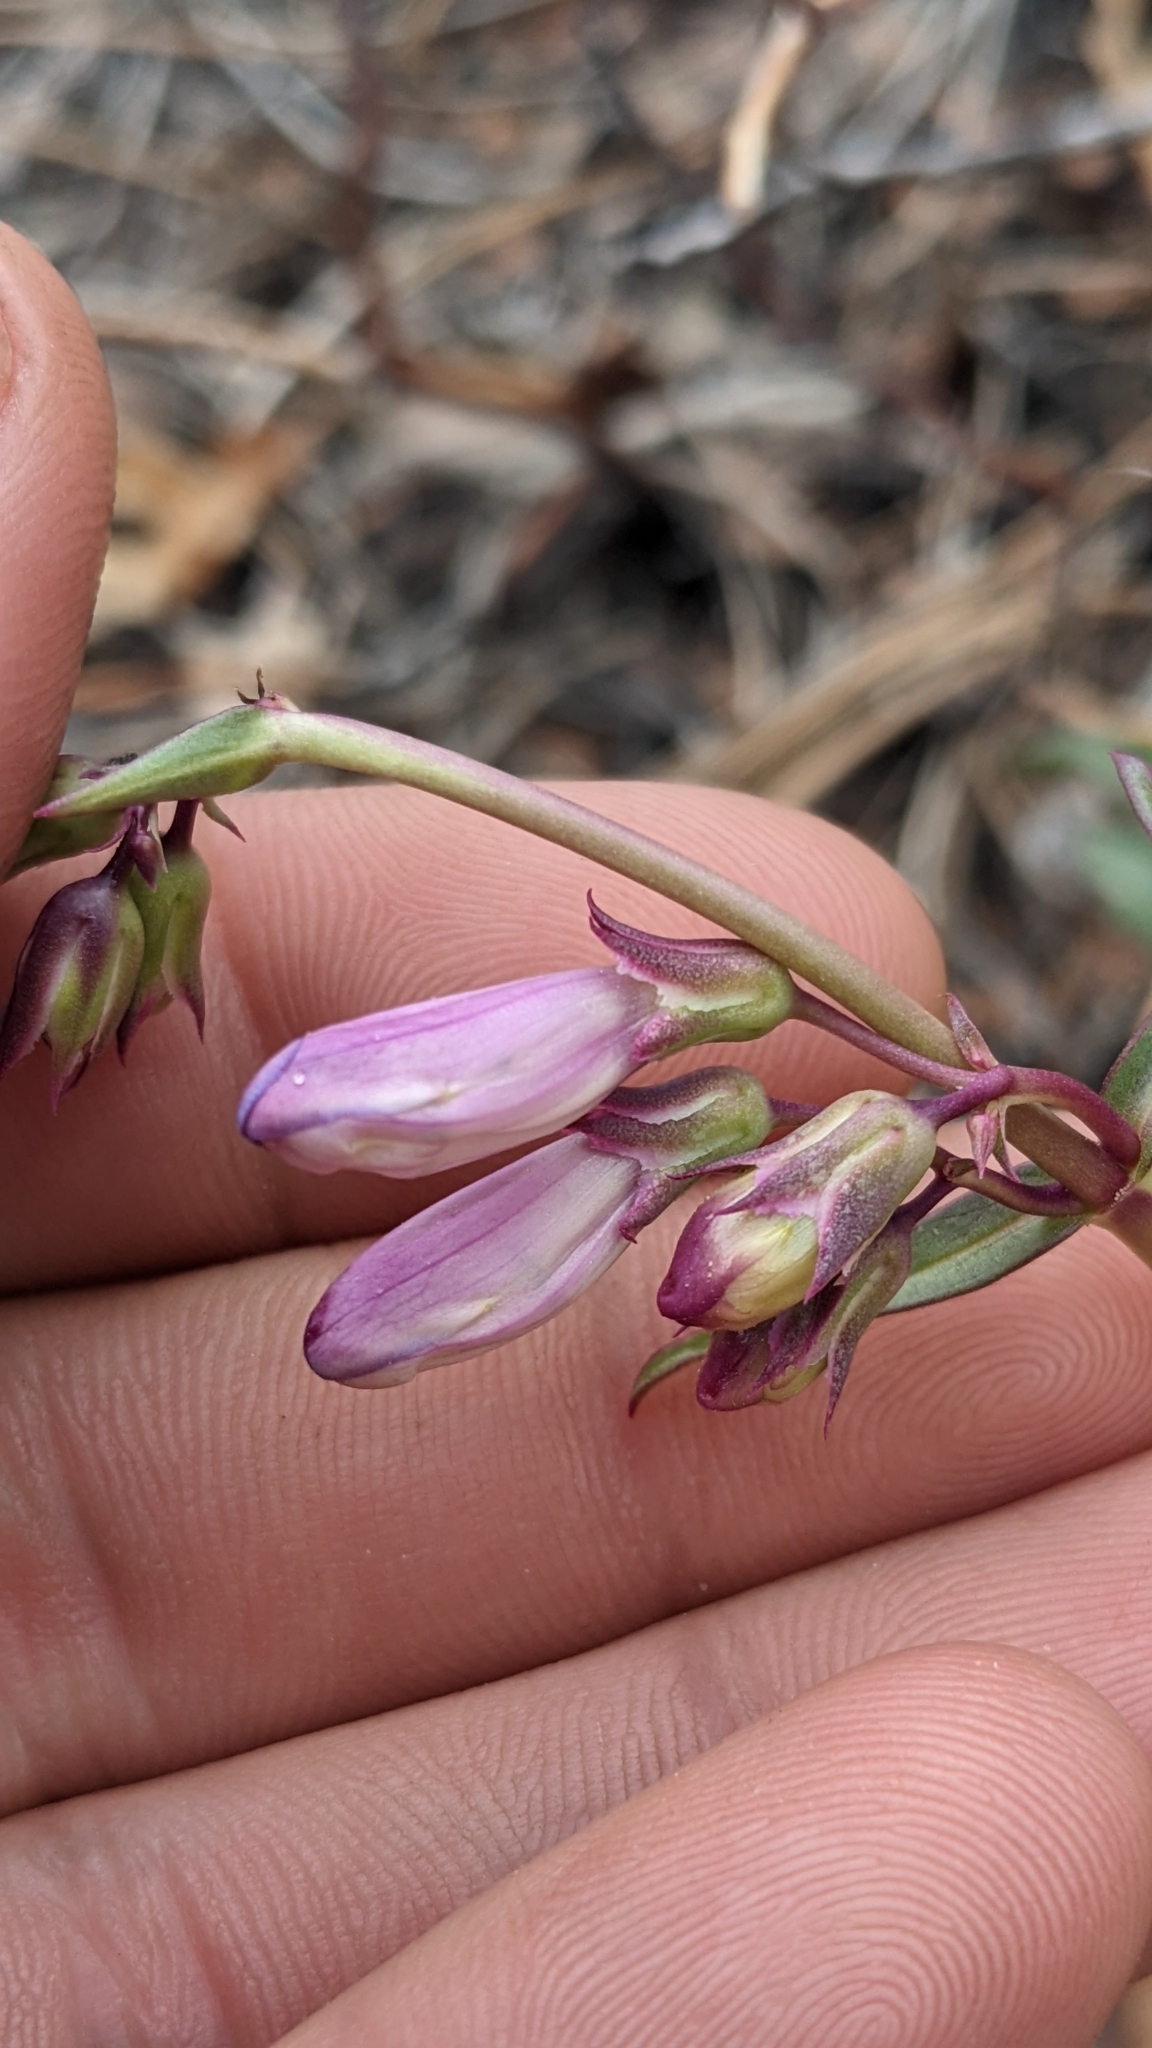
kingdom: Plantae
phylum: Tracheophyta
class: Magnoliopsida
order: Lamiales
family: Plantaginaceae
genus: Penstemon
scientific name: Penstemon laevis
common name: Smooth penstemon
